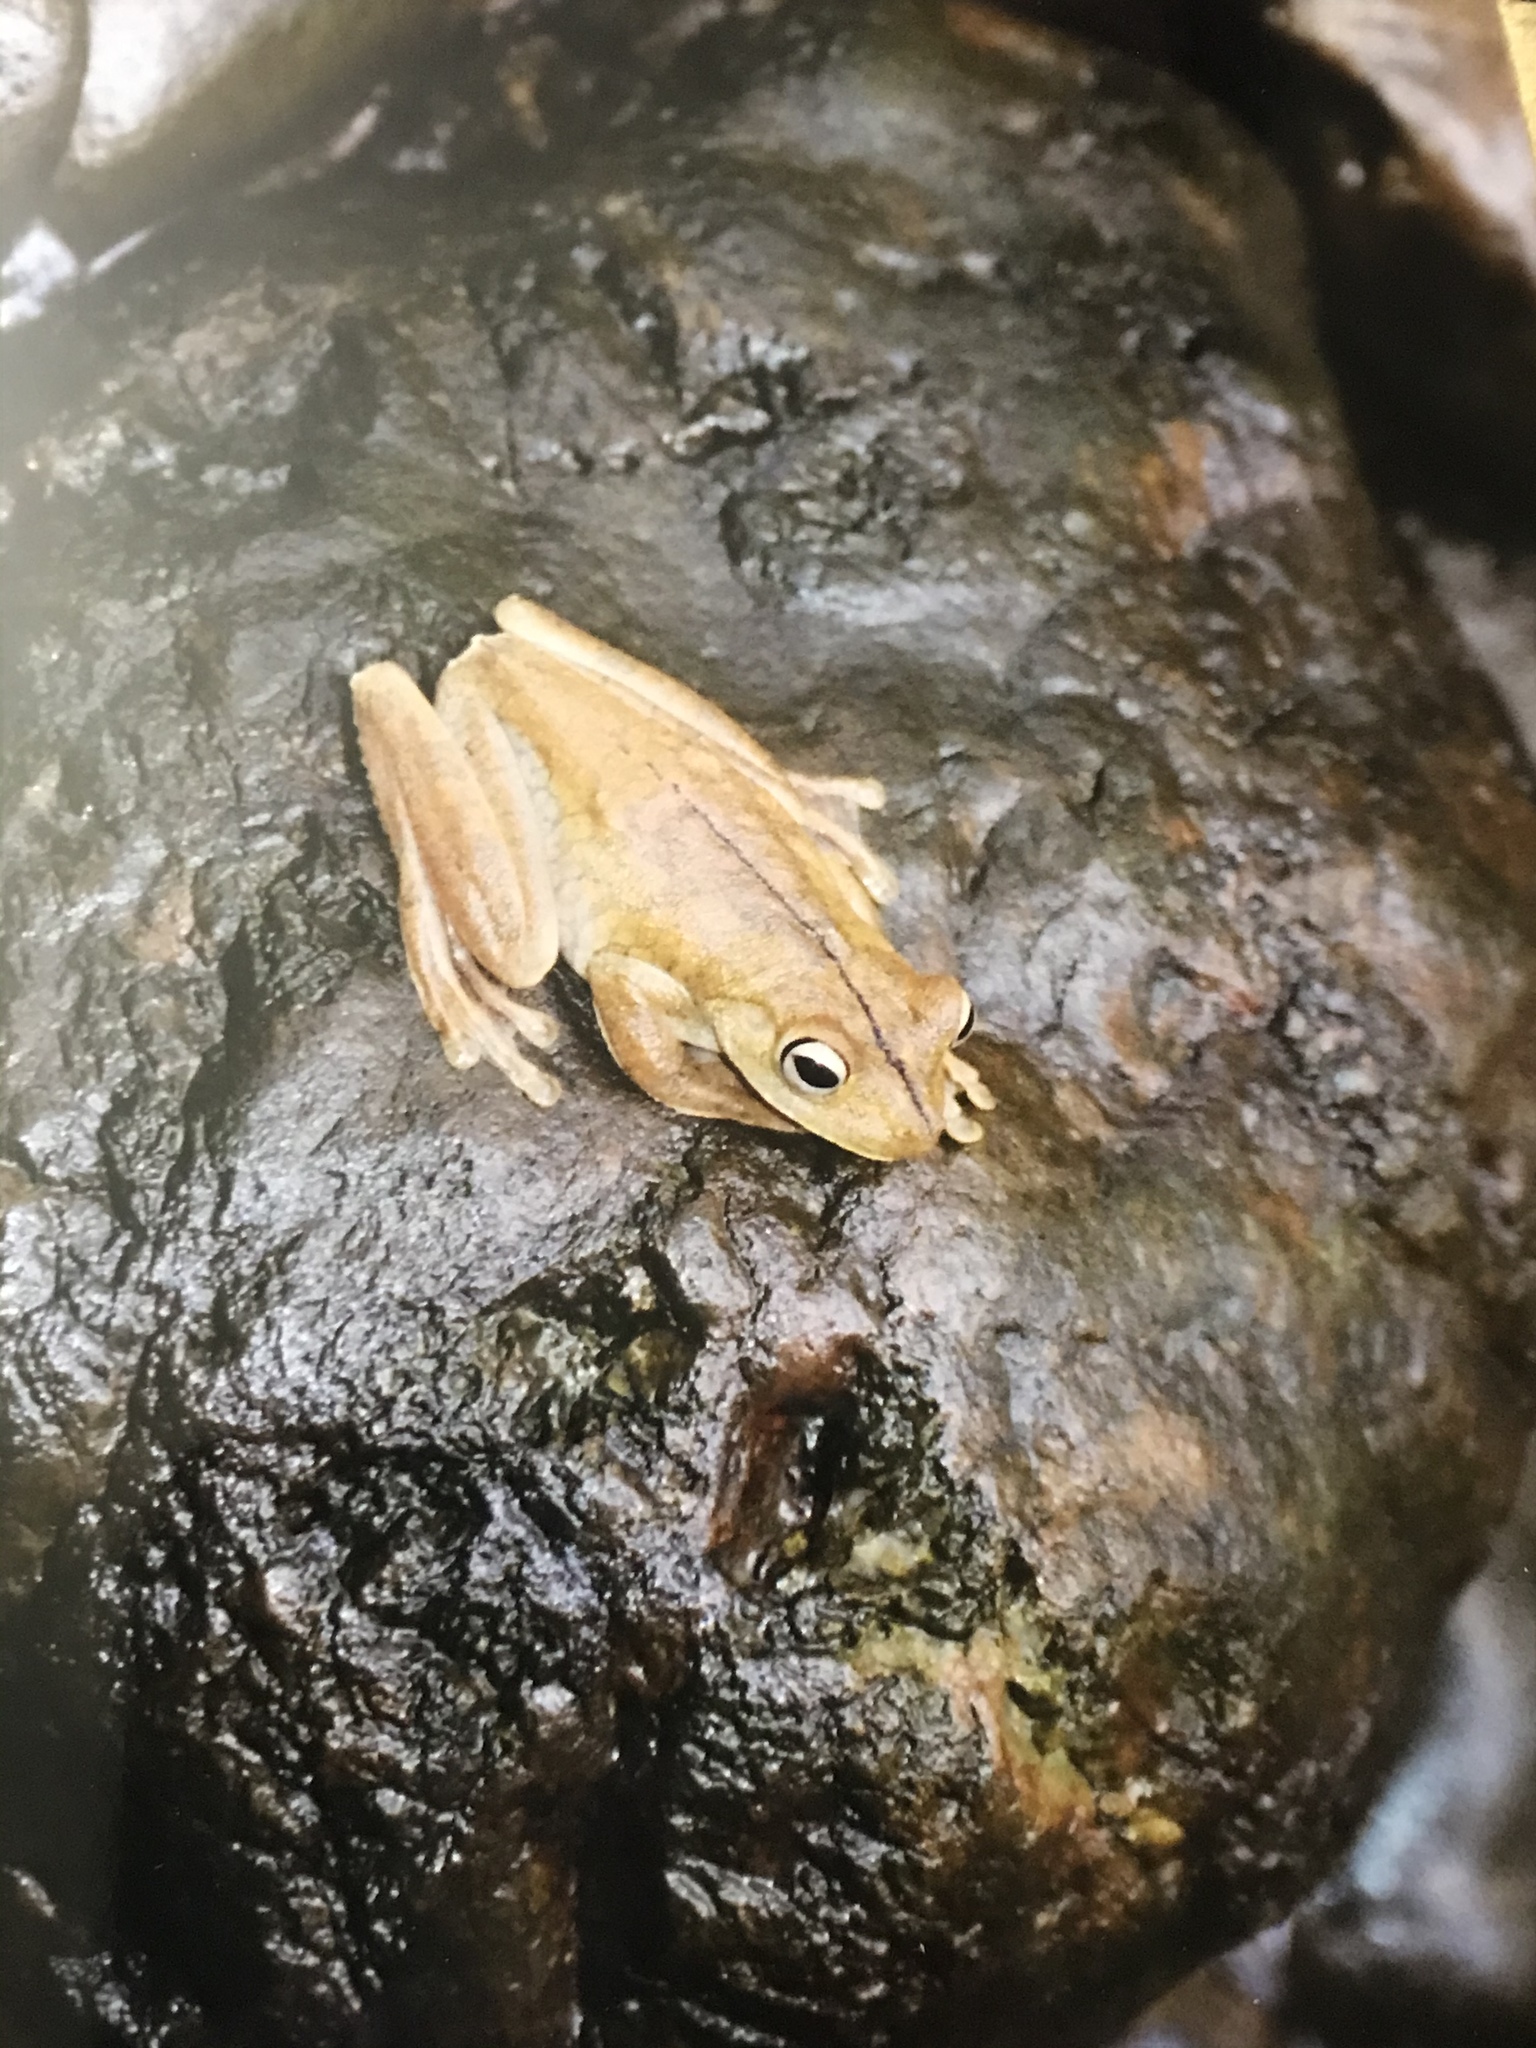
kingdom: Animalia
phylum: Chordata
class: Amphibia
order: Anura
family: Hylidae
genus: Boana
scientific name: Boana rosenbergi
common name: Rosenberg´s gladiator treefrog
